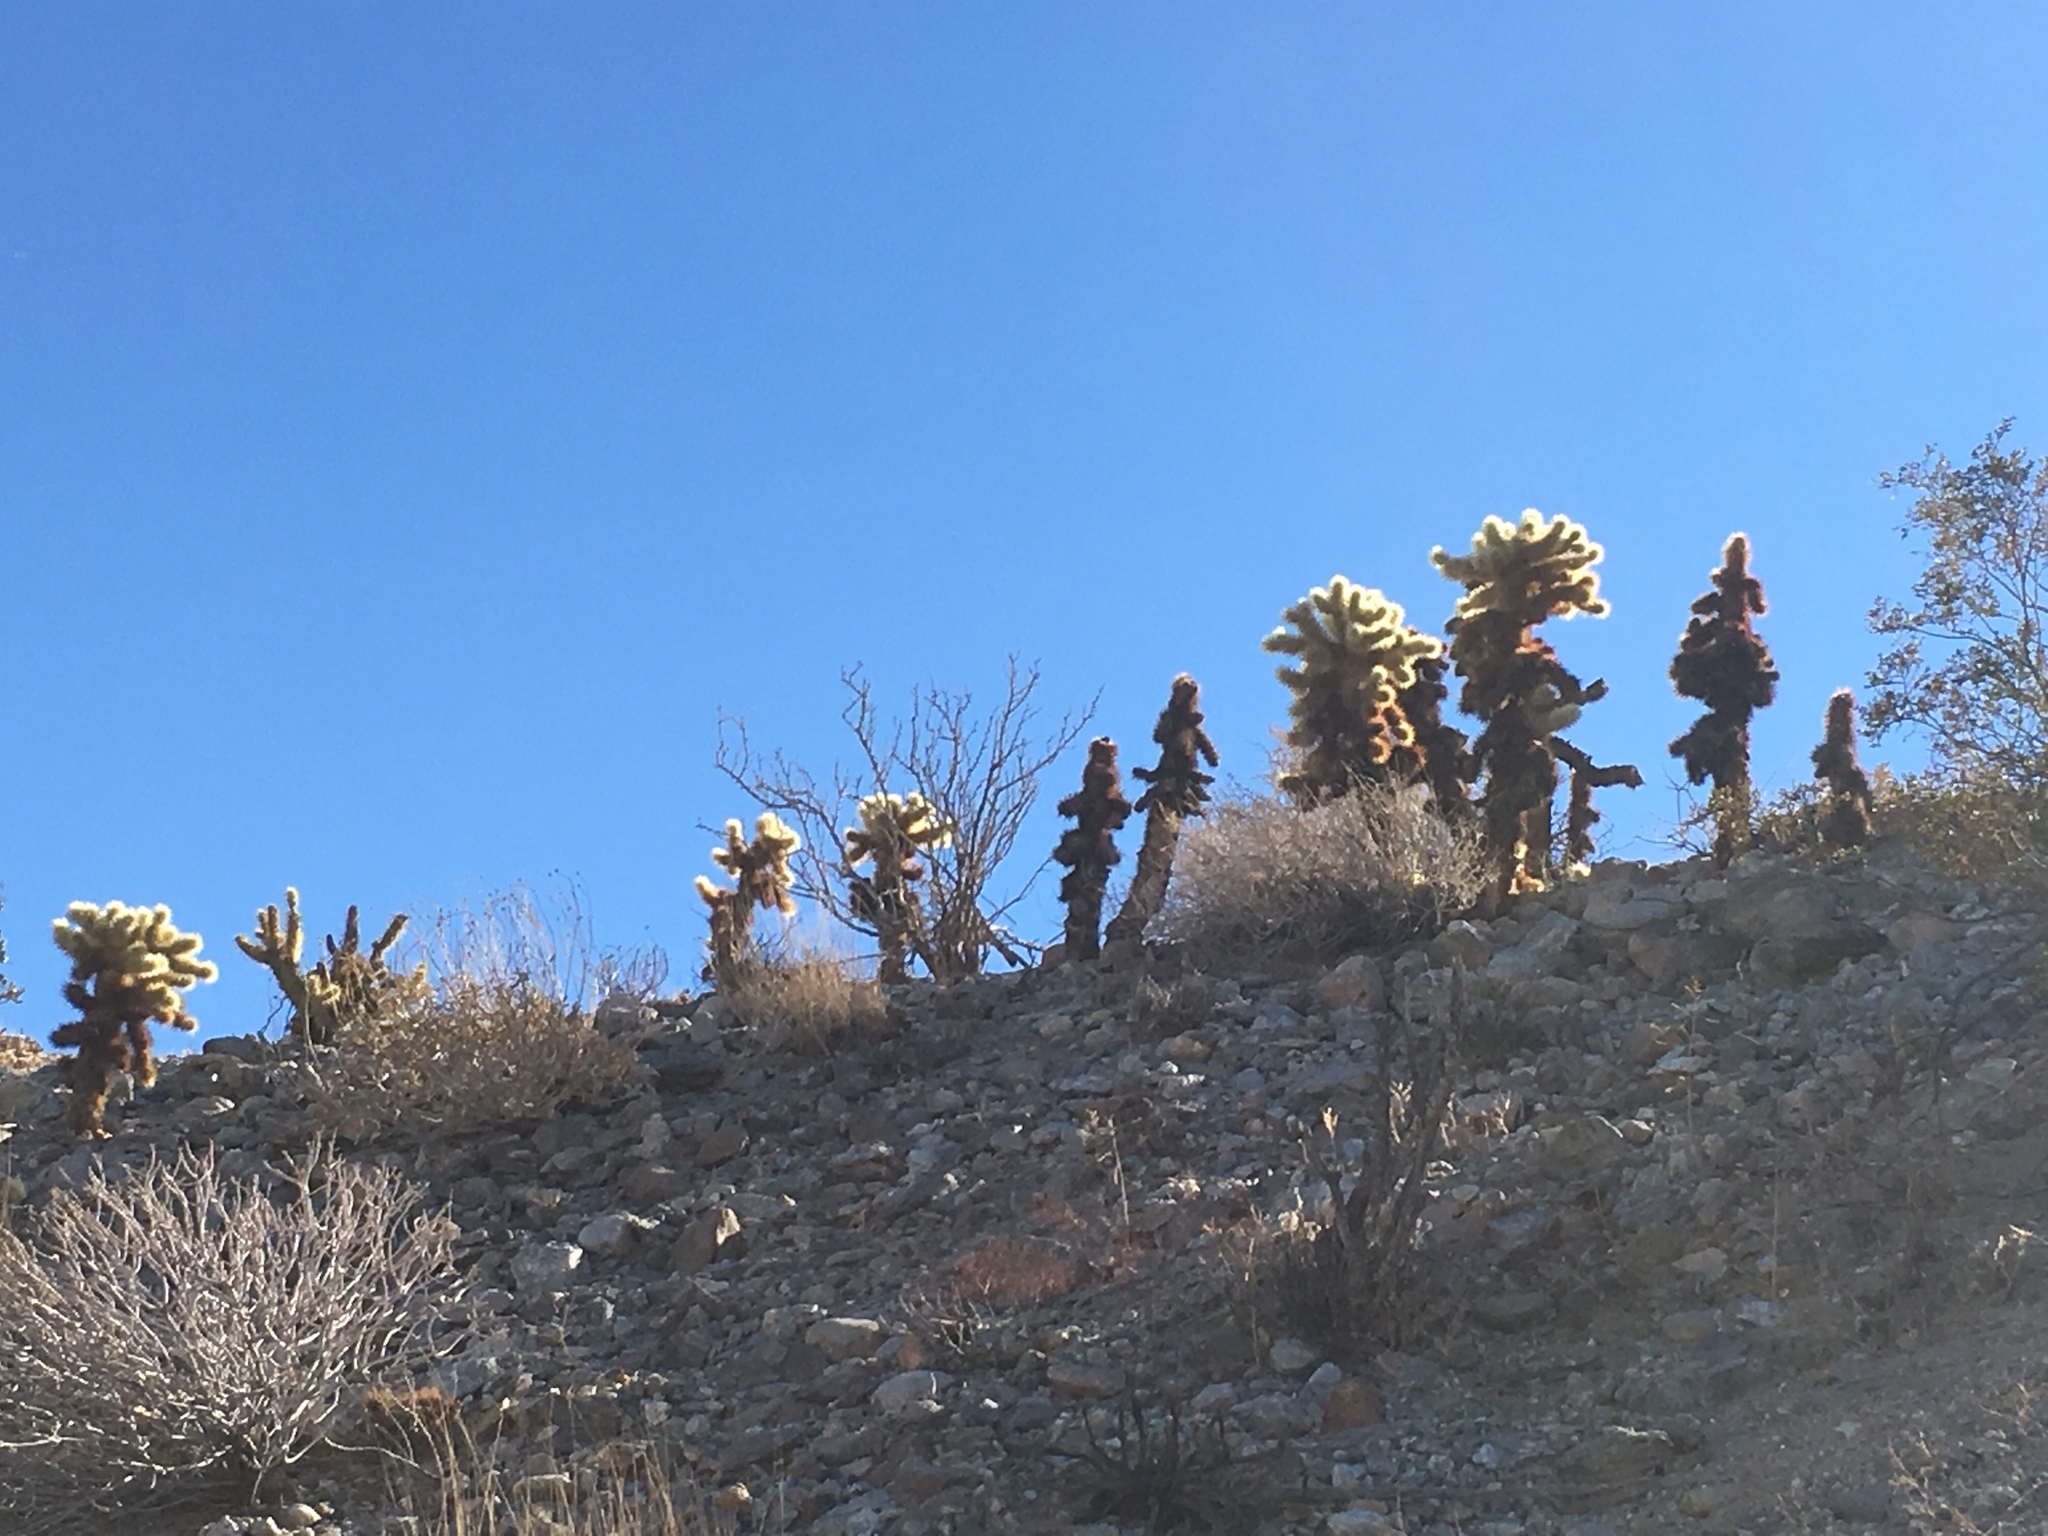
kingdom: Plantae
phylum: Tracheophyta
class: Magnoliopsida
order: Caryophyllales
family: Cactaceae
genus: Cylindropuntia
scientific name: Cylindropuntia fosbergii
